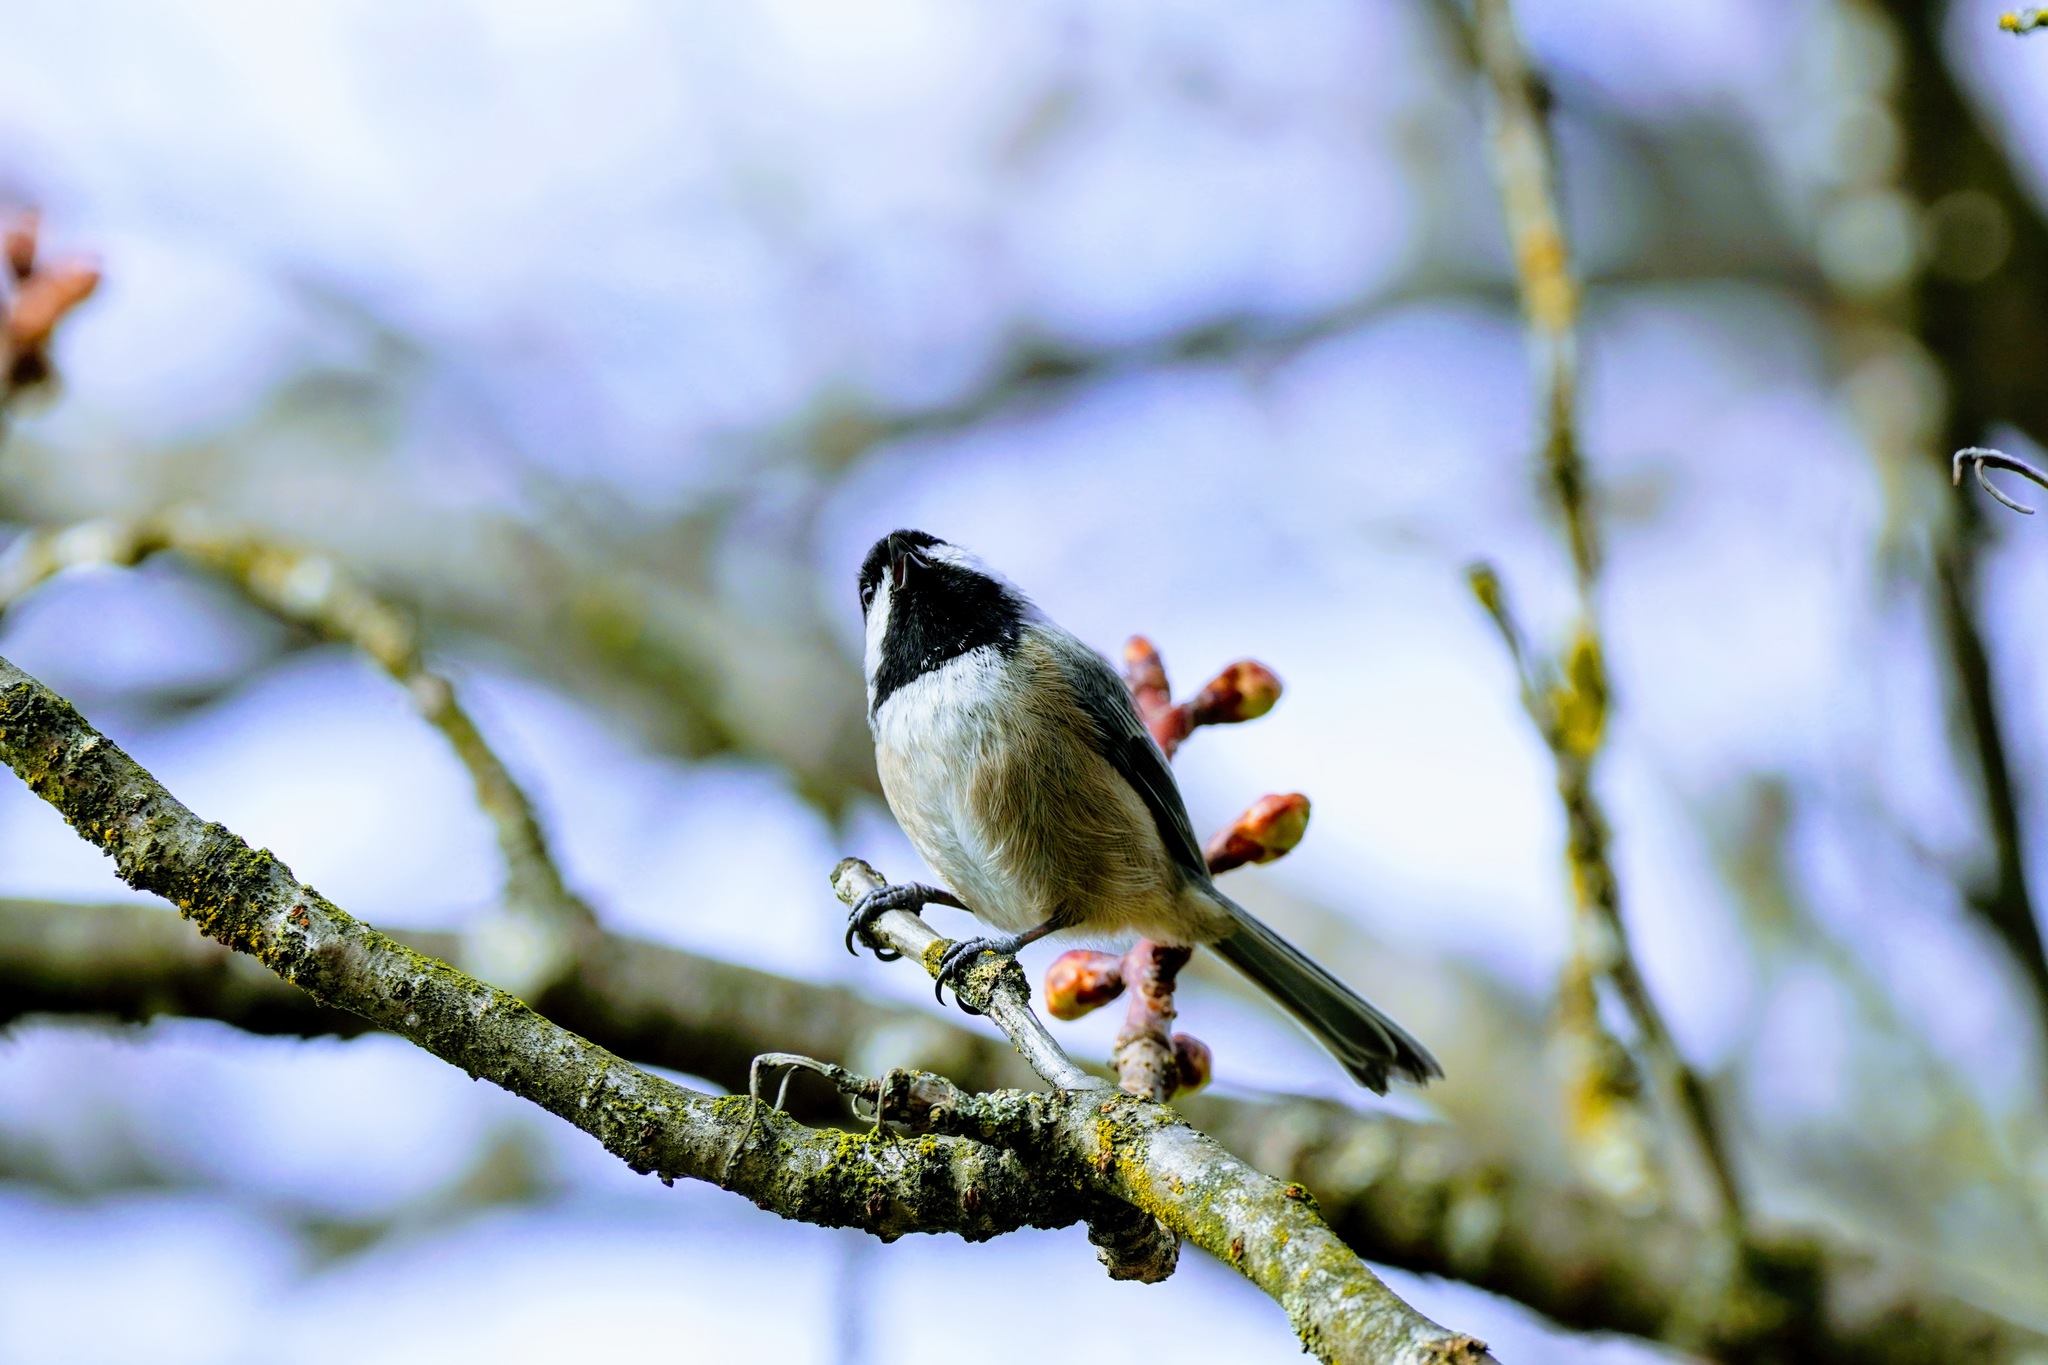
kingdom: Animalia
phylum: Chordata
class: Aves
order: Passeriformes
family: Paridae
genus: Poecile
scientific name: Poecile atricapillus
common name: Black-capped chickadee
